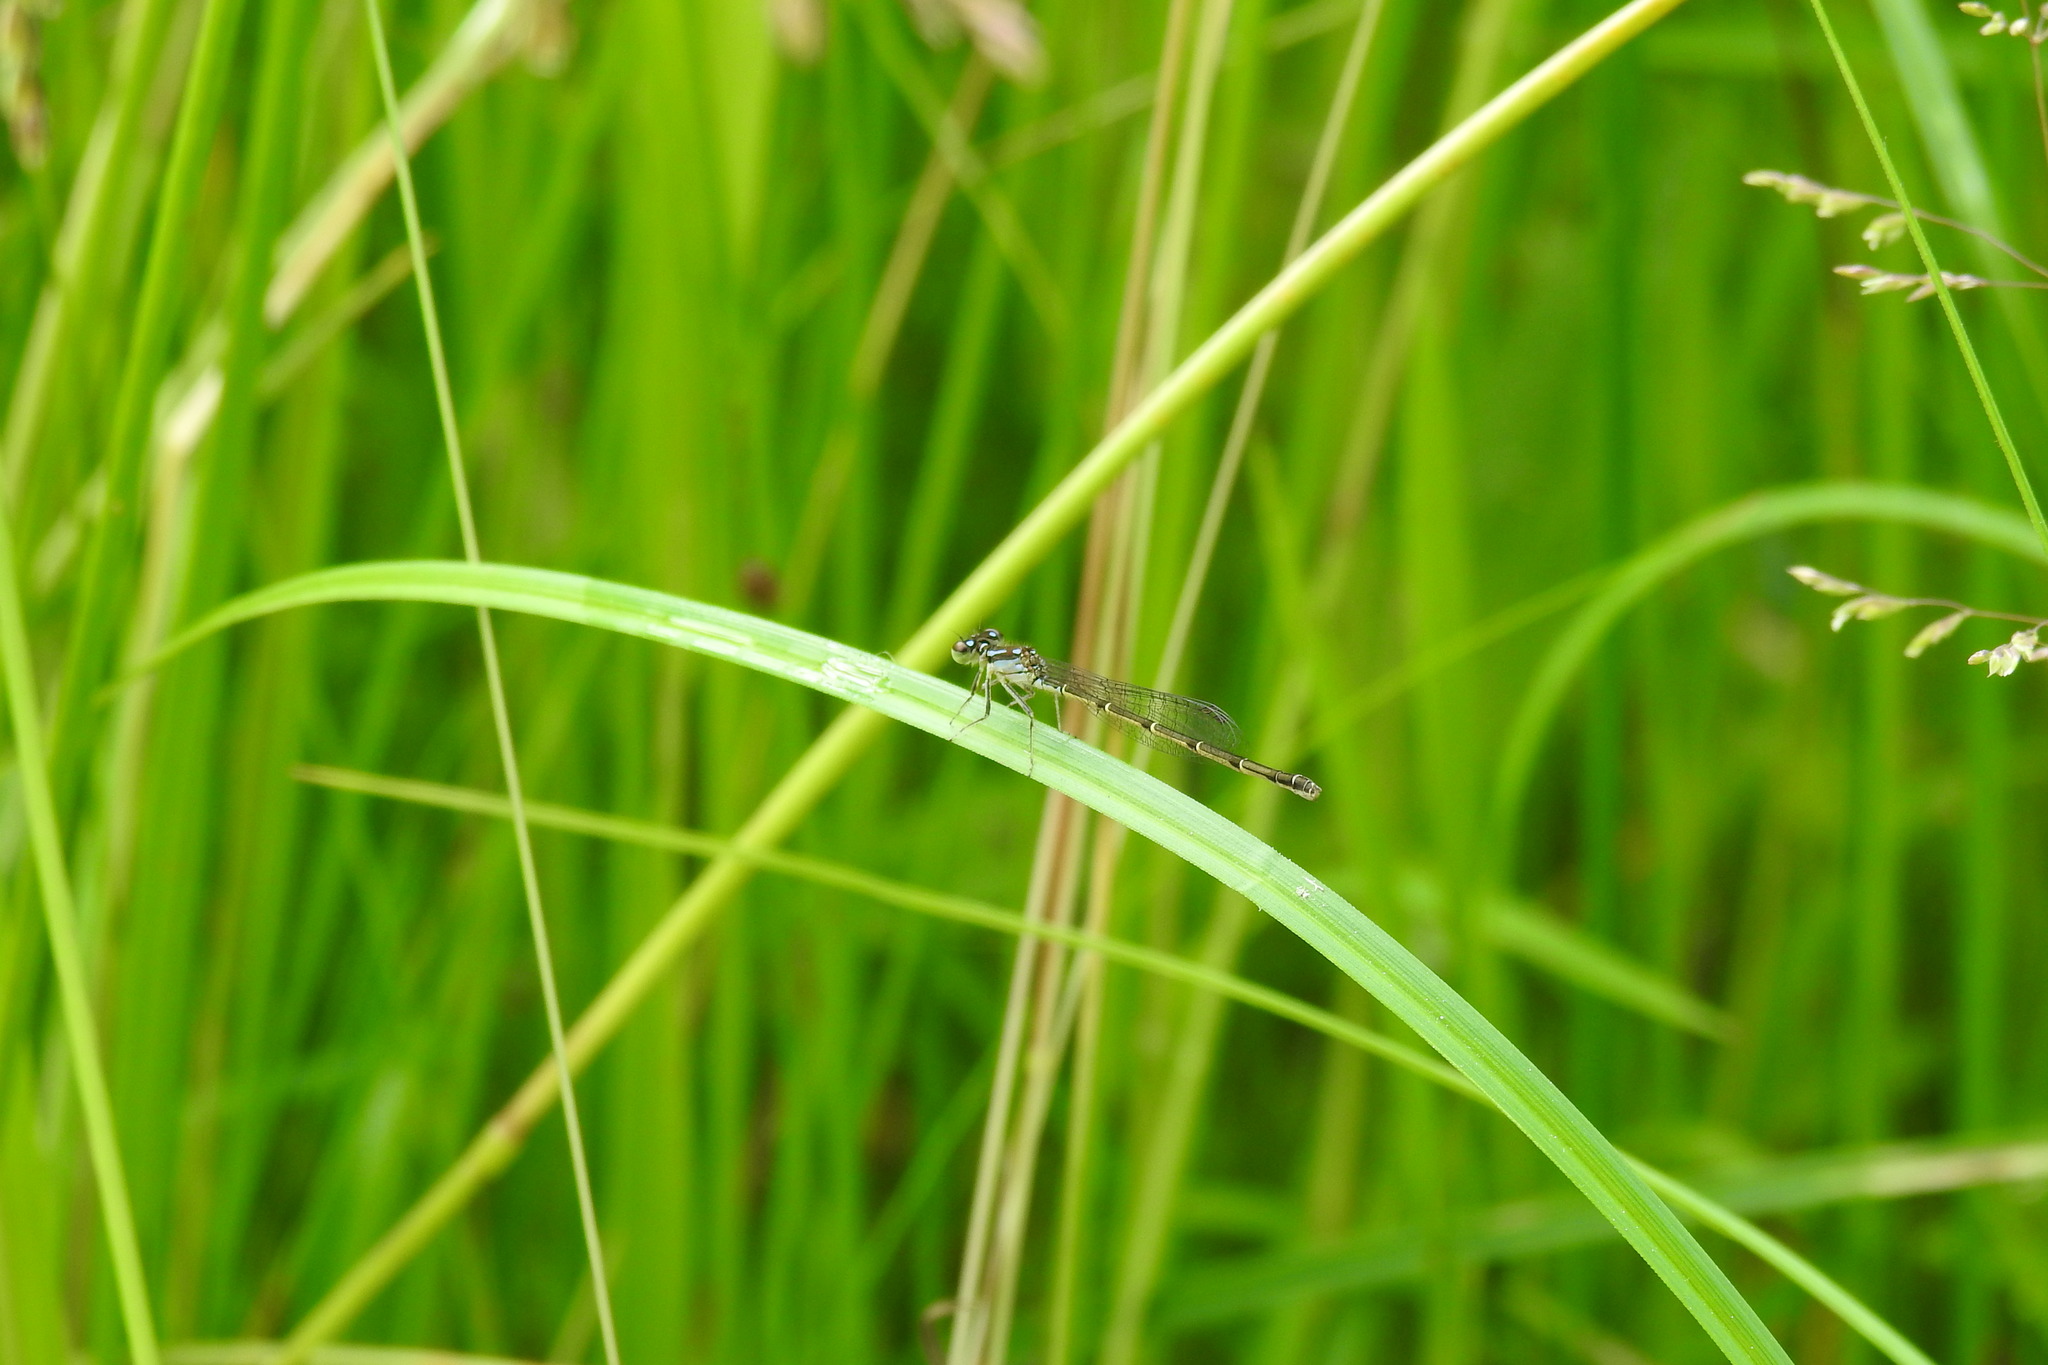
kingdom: Animalia
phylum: Arthropoda
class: Insecta
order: Odonata
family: Coenagrionidae
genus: Ischnura
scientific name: Ischnura posita
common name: Fragile forktail
